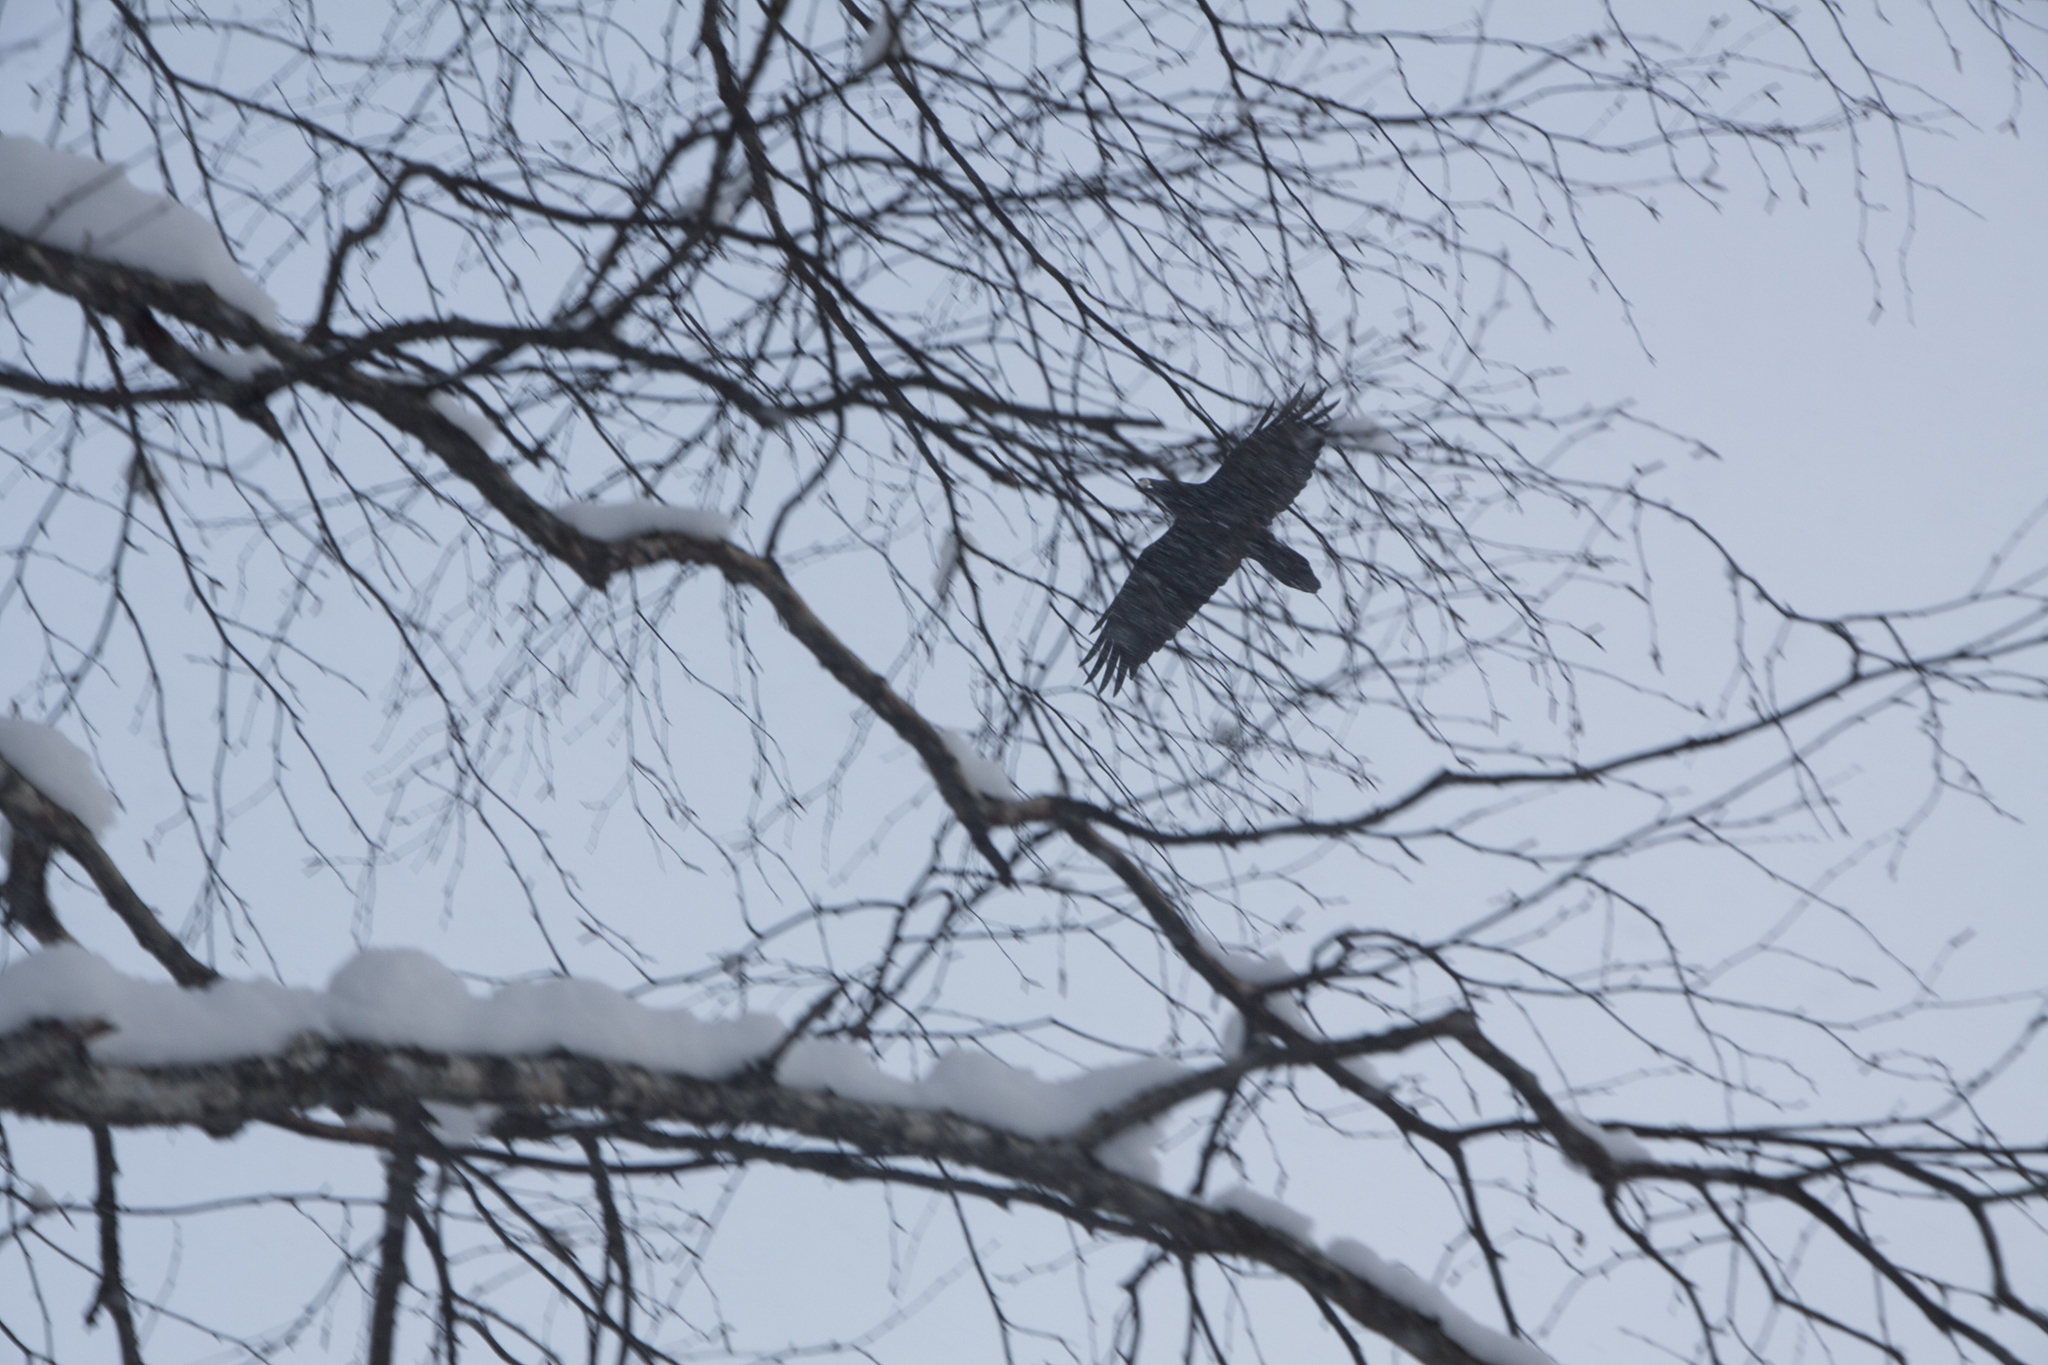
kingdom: Animalia
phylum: Chordata
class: Aves
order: Passeriformes
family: Corvidae
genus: Corvus
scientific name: Corvus corax
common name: Common raven
